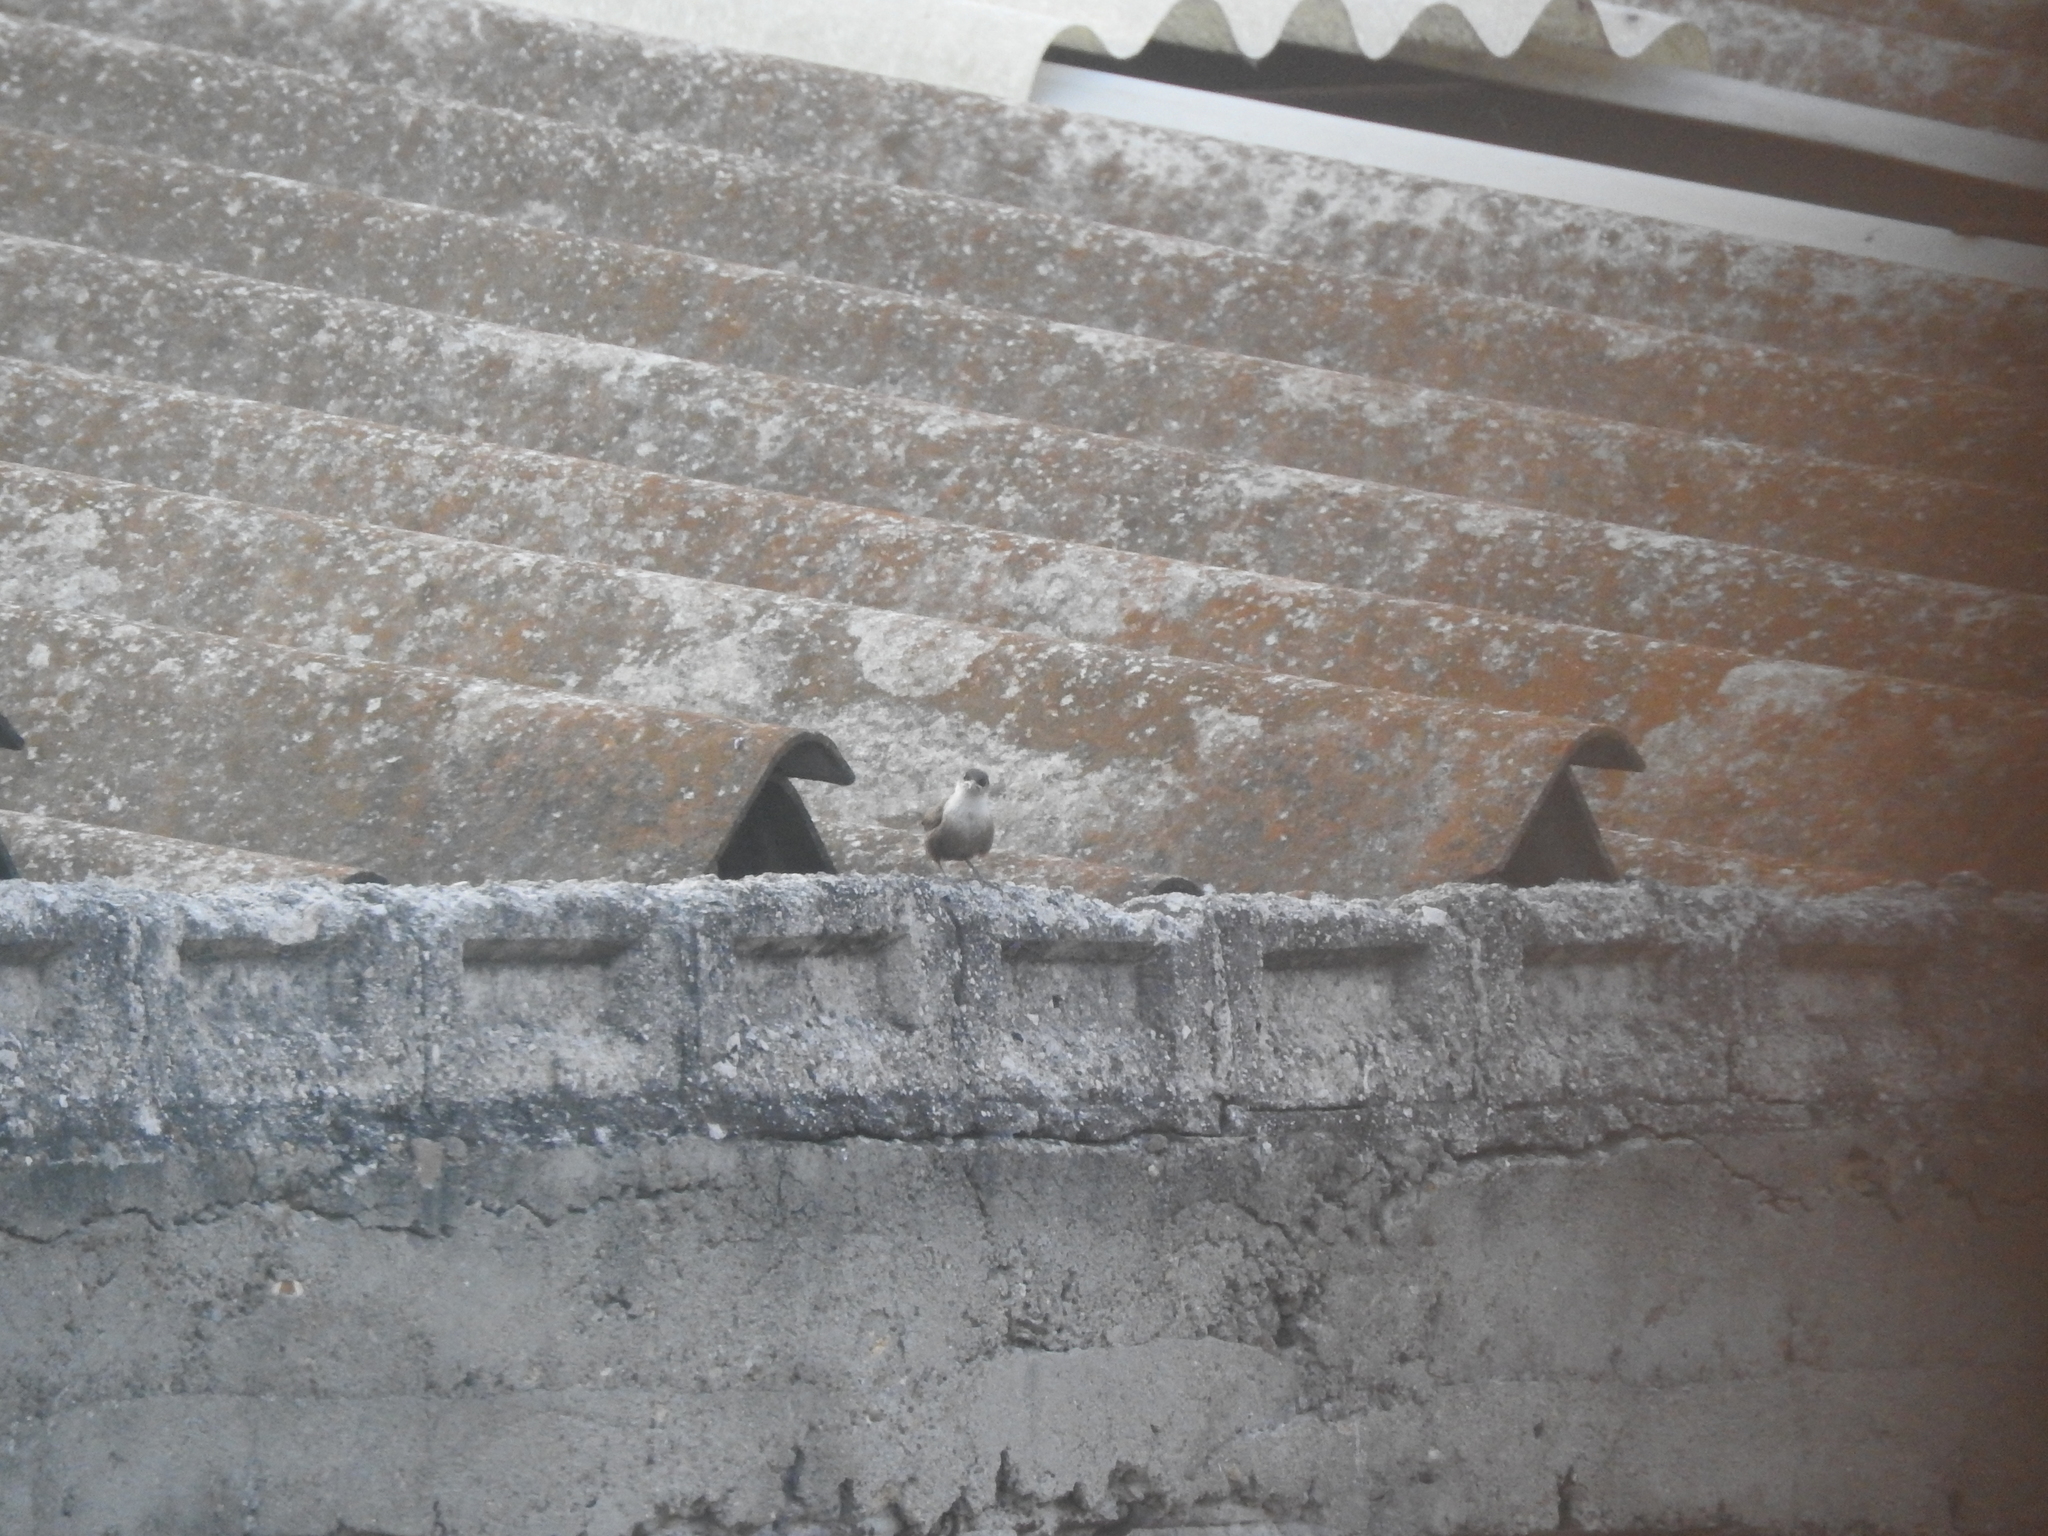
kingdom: Animalia
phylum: Chordata
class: Aves
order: Passeriformes
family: Troglodytidae
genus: Catherpes
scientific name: Catherpes mexicanus
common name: Canyon wren
